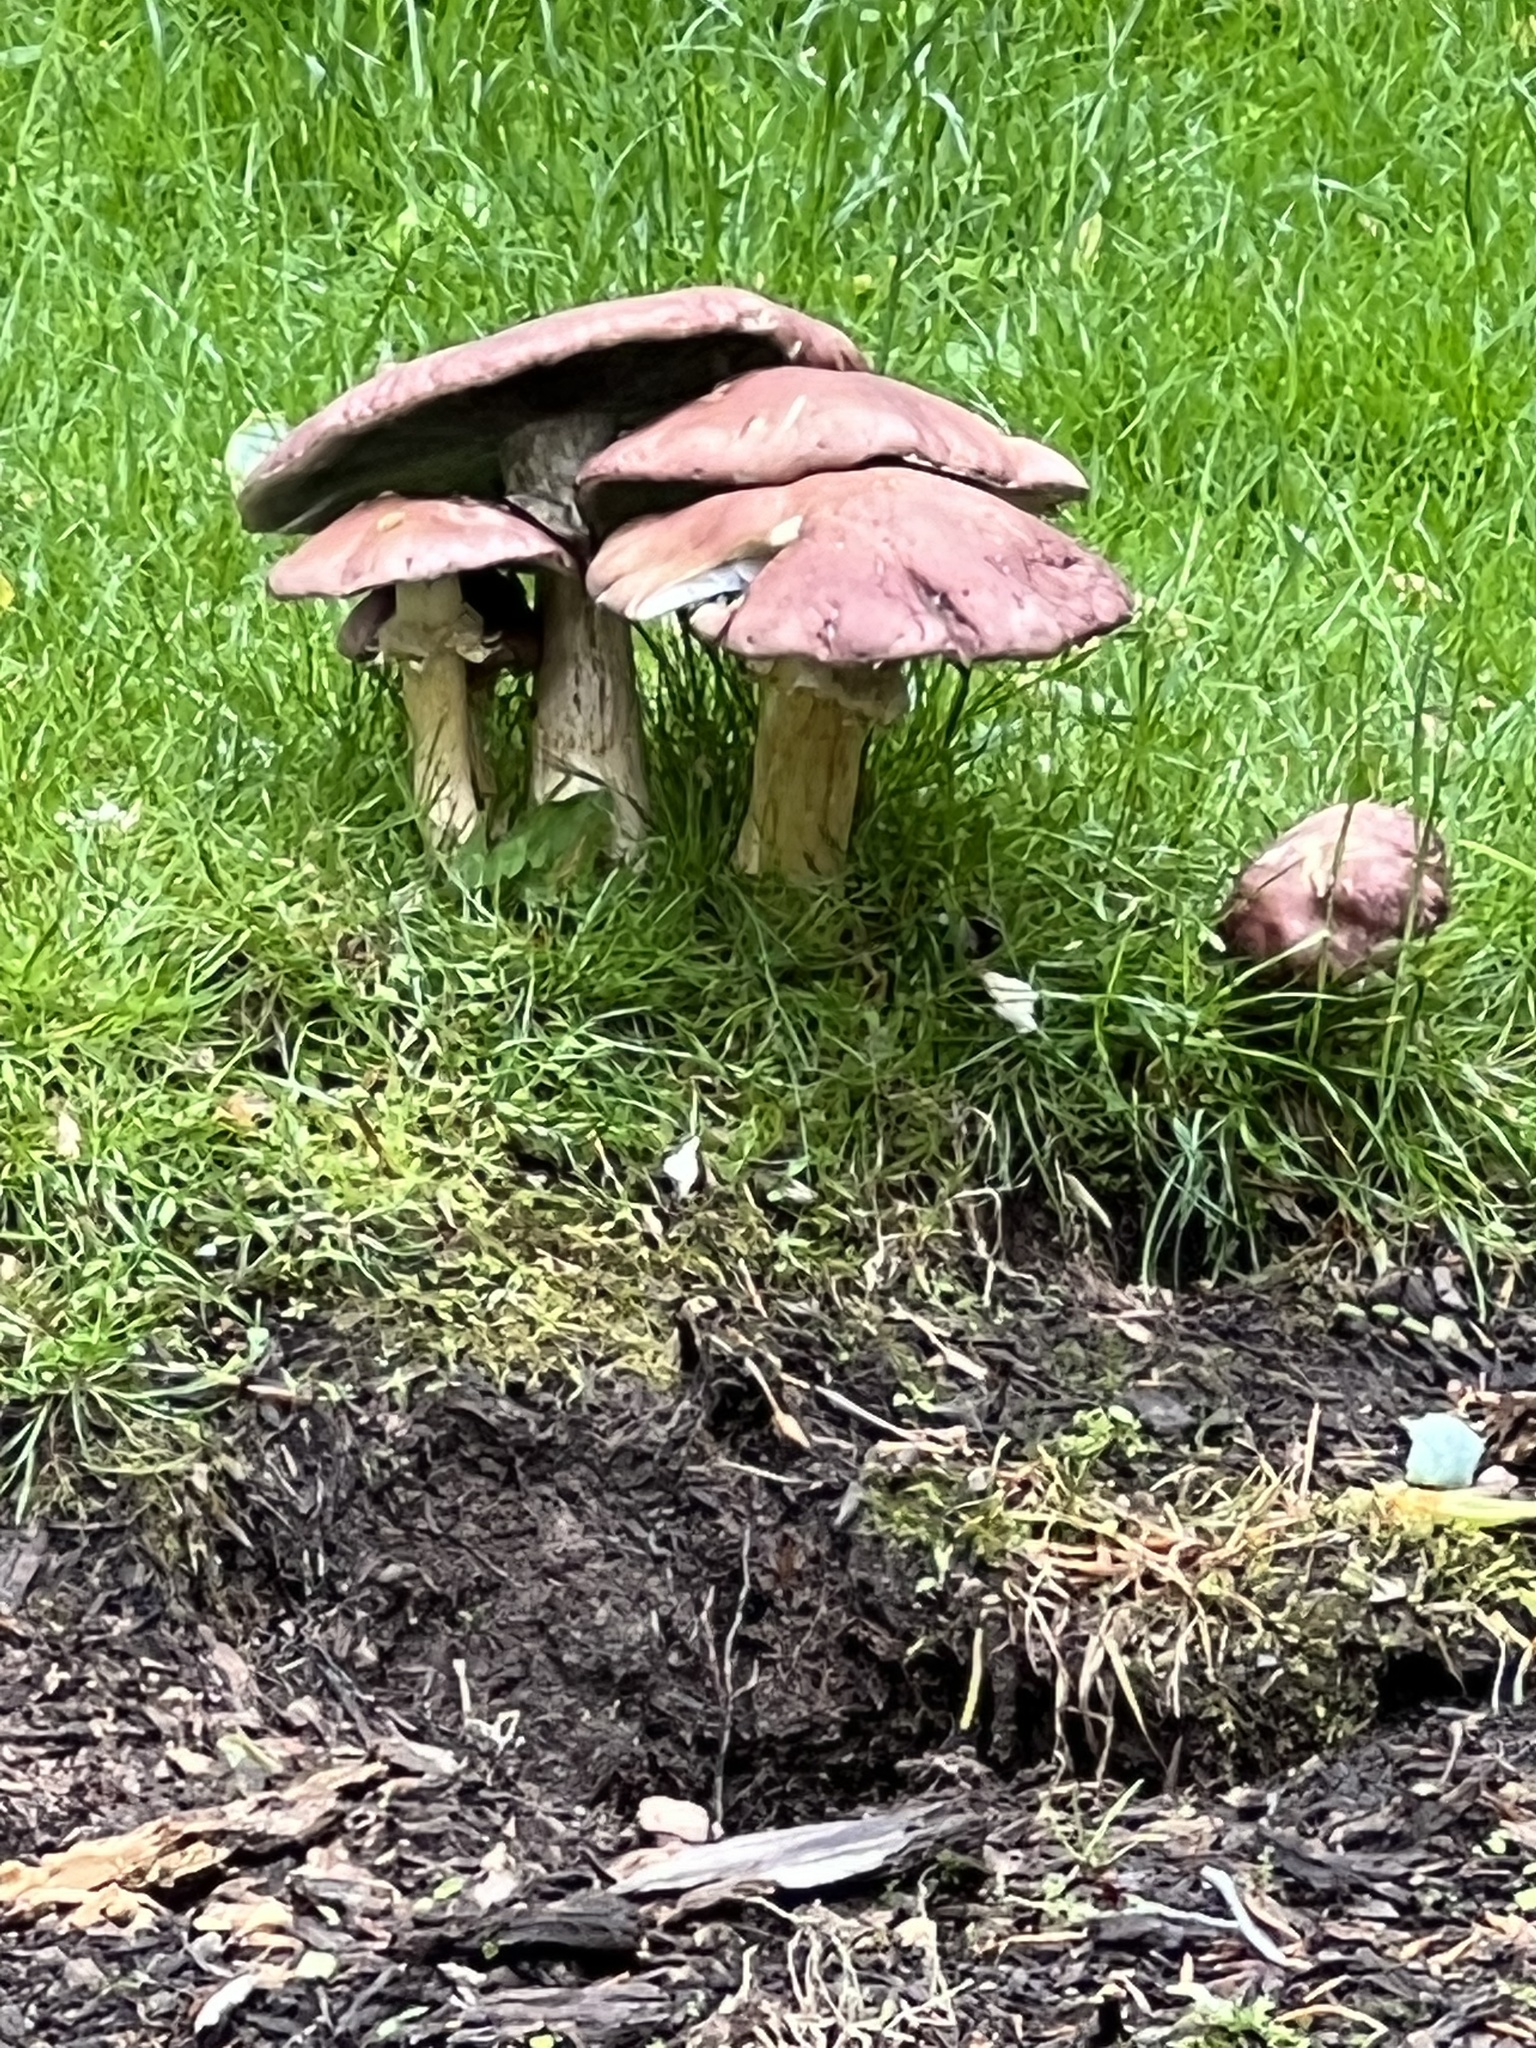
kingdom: Fungi
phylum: Basidiomycota
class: Agaricomycetes
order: Agaricales
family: Strophariaceae
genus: Stropharia
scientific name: Stropharia rugosoannulata
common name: Wine roundhead
